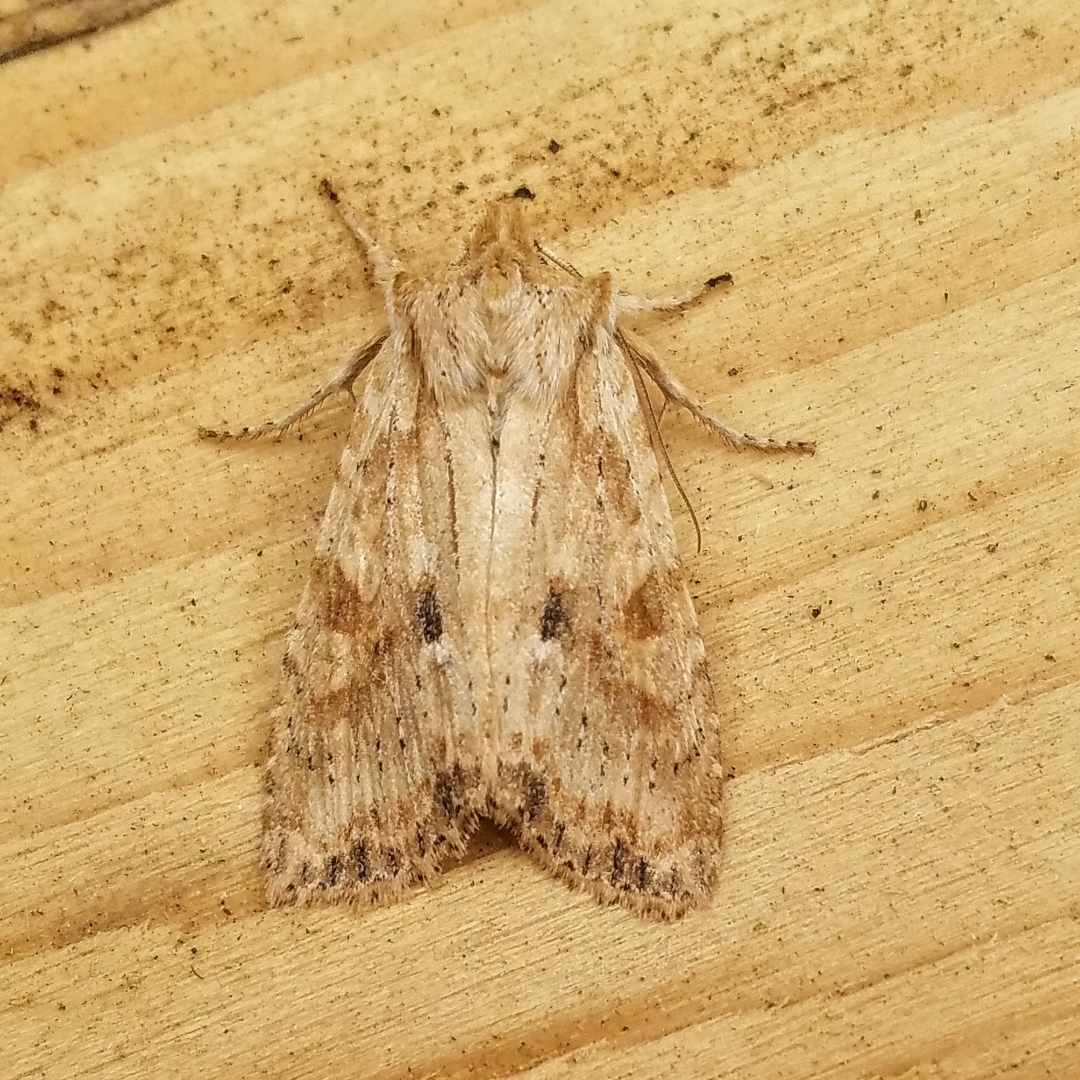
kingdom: Animalia
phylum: Arthropoda
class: Insecta
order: Lepidoptera
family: Noctuidae
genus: Lithophane
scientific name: Lithophane innominata
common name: Nameless pinion moth
